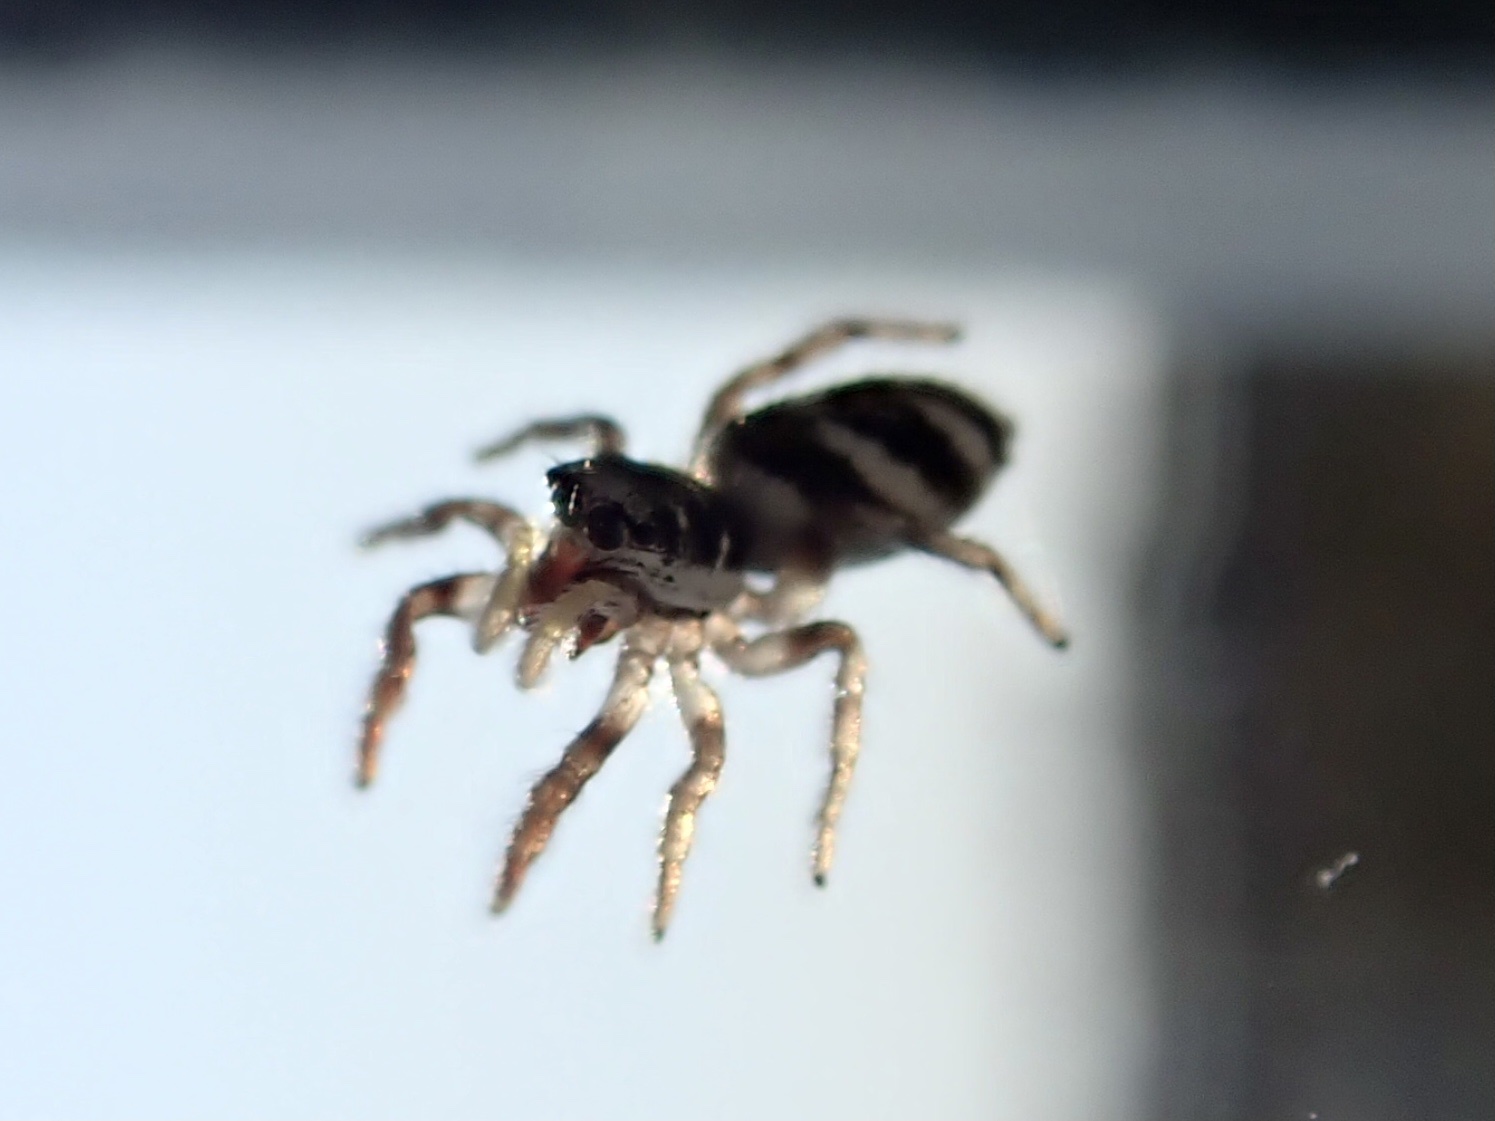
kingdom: Animalia
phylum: Arthropoda
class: Arachnida
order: Araneae
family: Salticidae
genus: Salticus
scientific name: Salticus scenicus
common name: Zebra jumper
